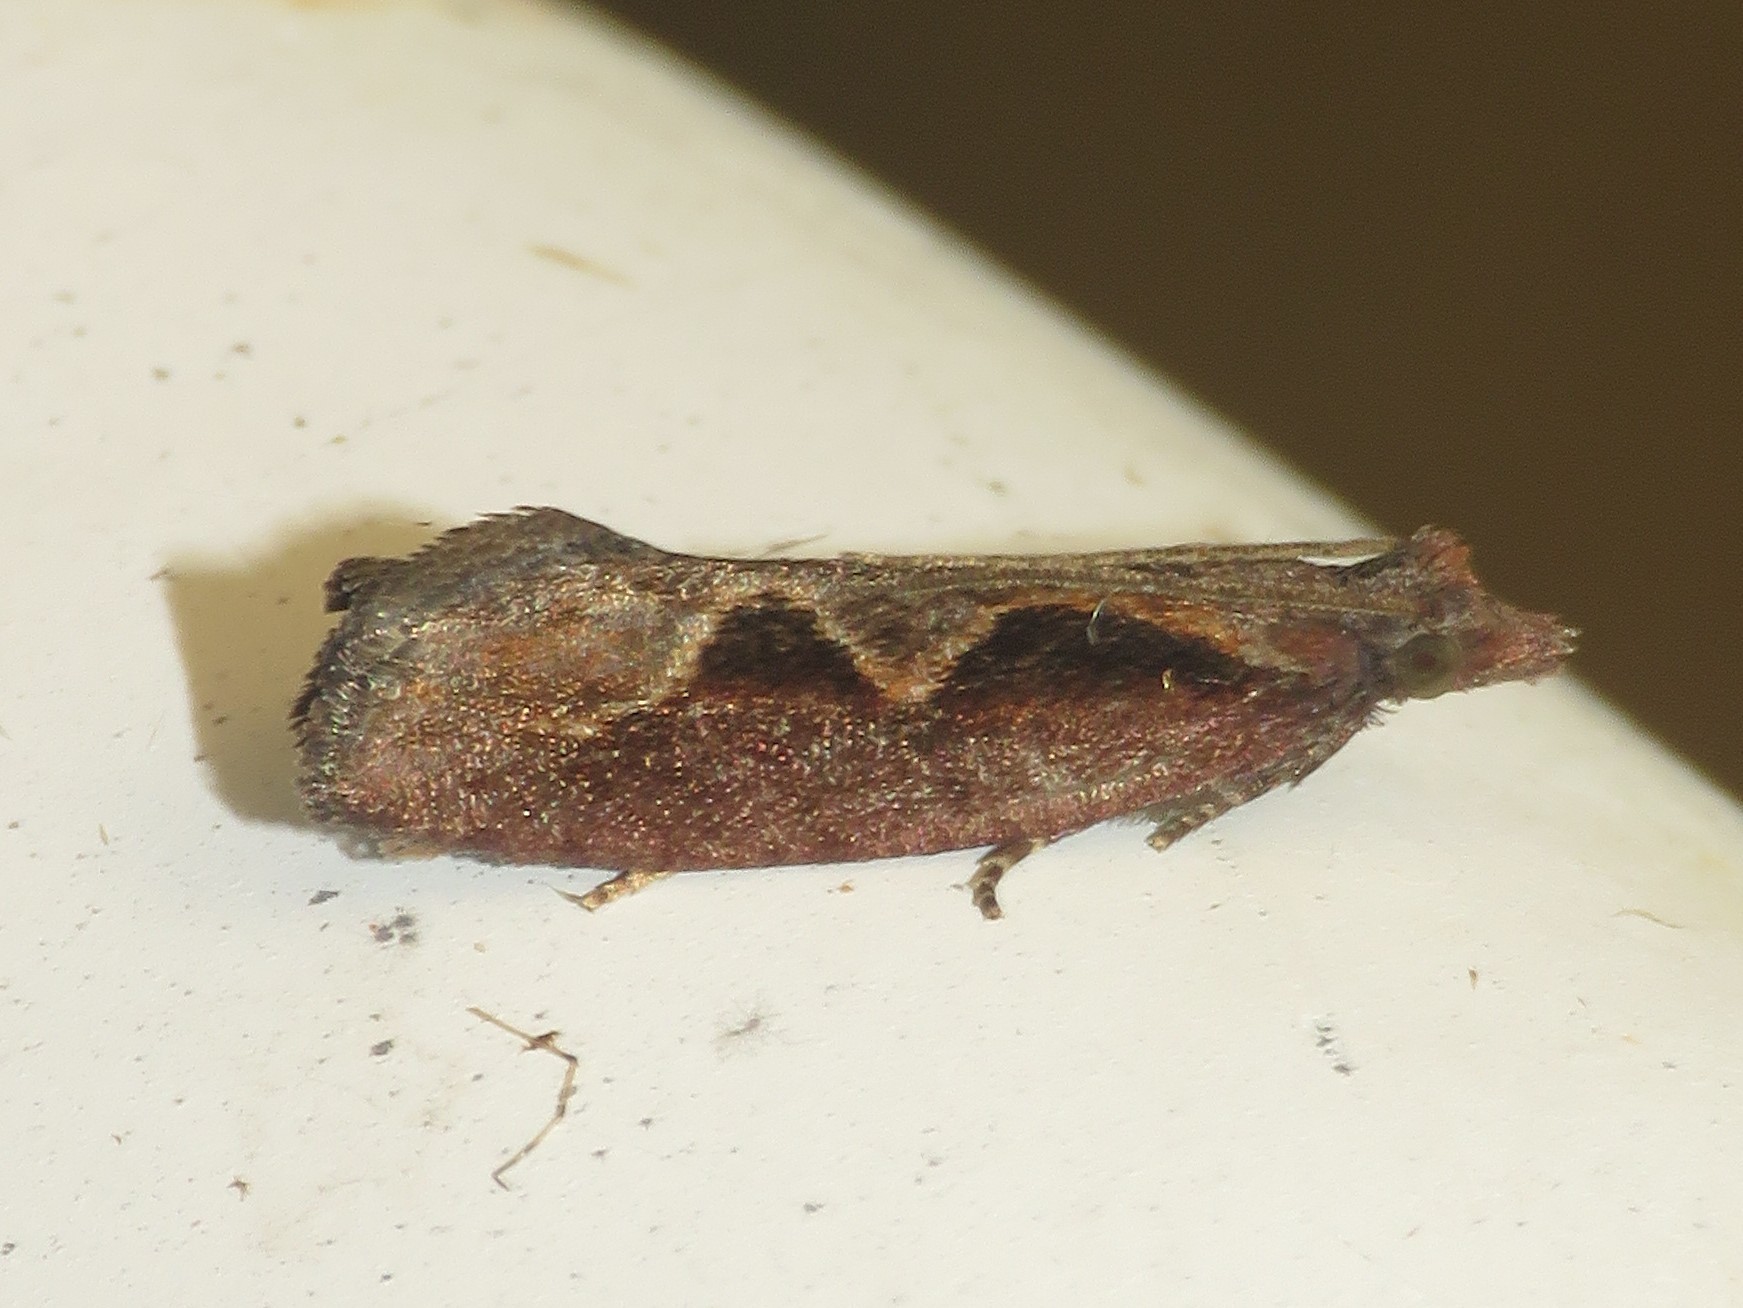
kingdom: Animalia
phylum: Arthropoda
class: Insecta
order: Lepidoptera
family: Tortricidae
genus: Epinotia
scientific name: Epinotia lindana
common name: Diamondback epinotia moth
